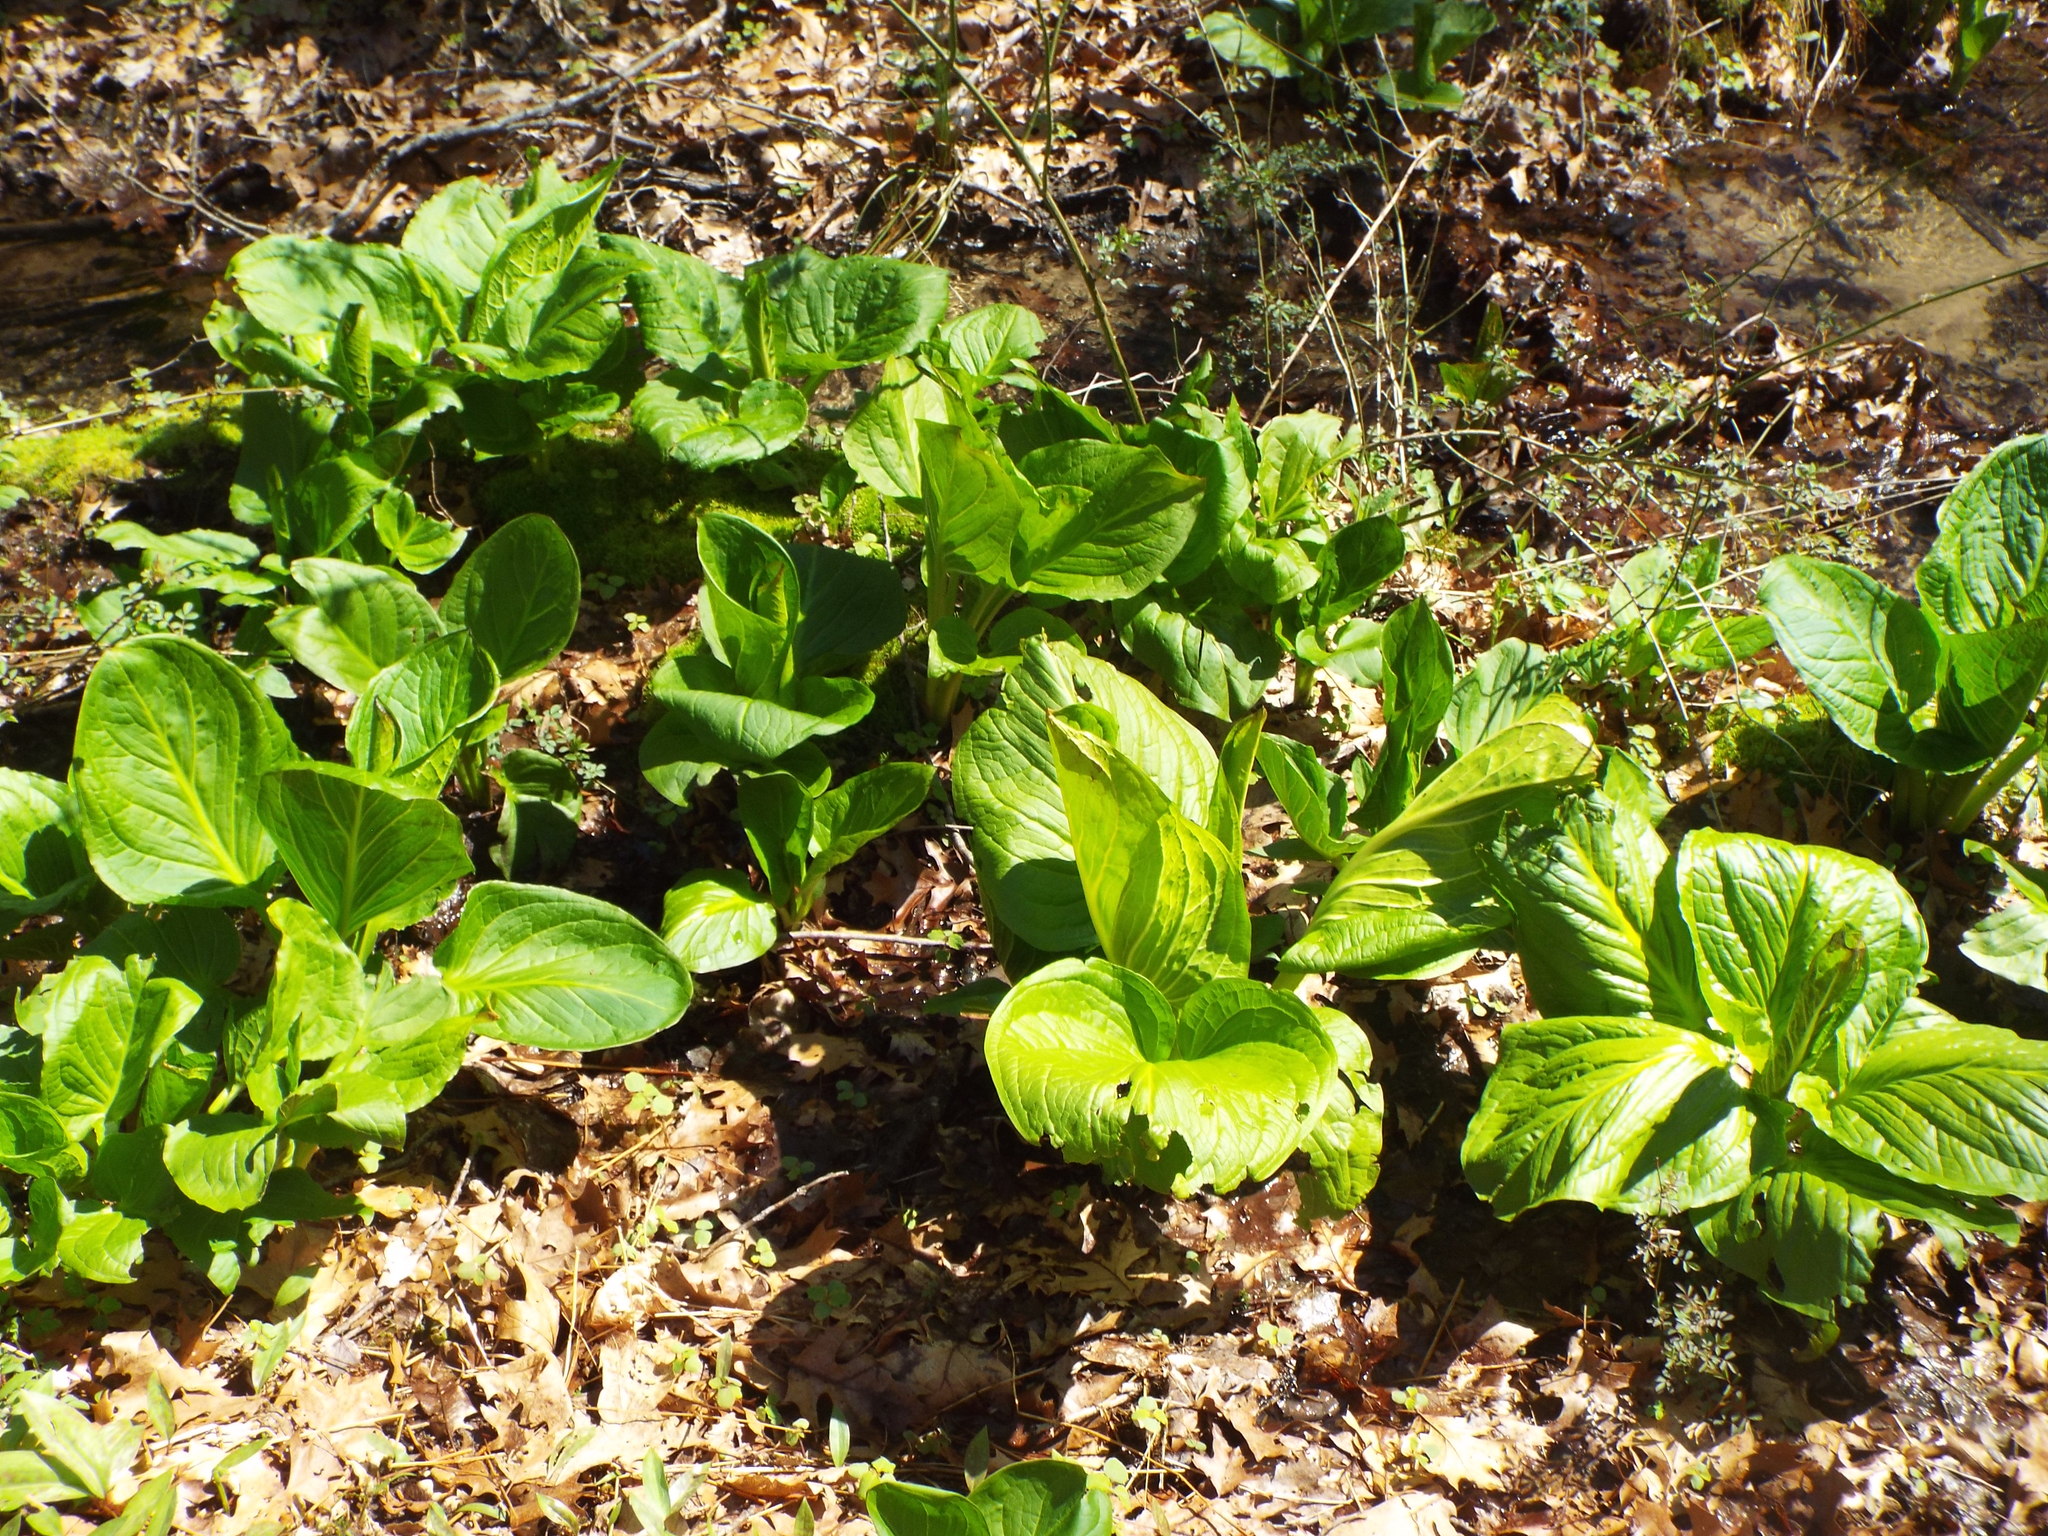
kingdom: Plantae
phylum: Tracheophyta
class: Liliopsida
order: Alismatales
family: Araceae
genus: Symplocarpus
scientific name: Symplocarpus foetidus
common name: Eastern skunk cabbage
